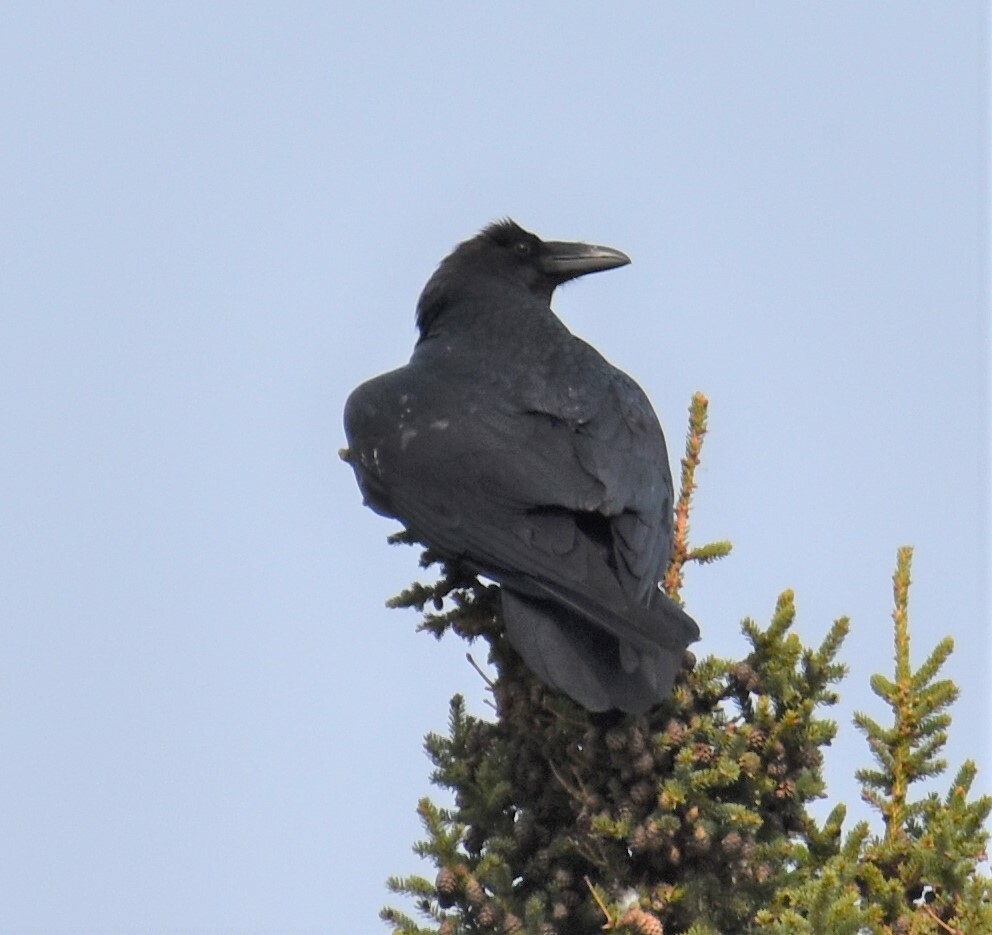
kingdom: Animalia
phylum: Chordata
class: Aves
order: Passeriformes
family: Corvidae
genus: Corvus
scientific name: Corvus corax
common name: Common raven
